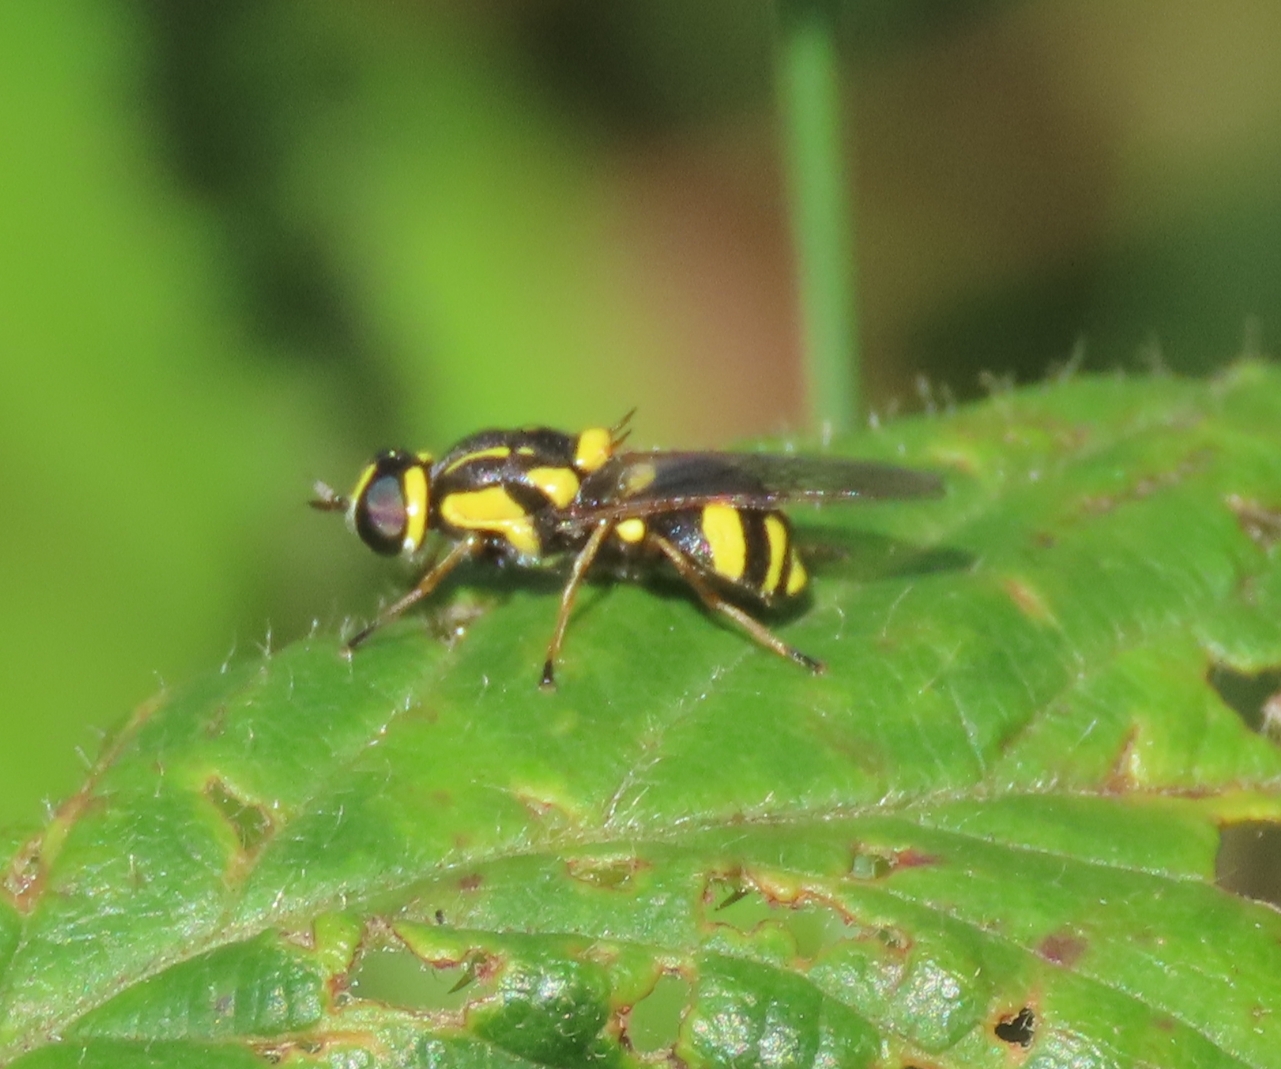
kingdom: Animalia
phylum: Arthropoda
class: Insecta
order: Diptera
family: Stratiomyidae
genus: Oxycera
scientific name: Oxycera rara
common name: Four-barred major
